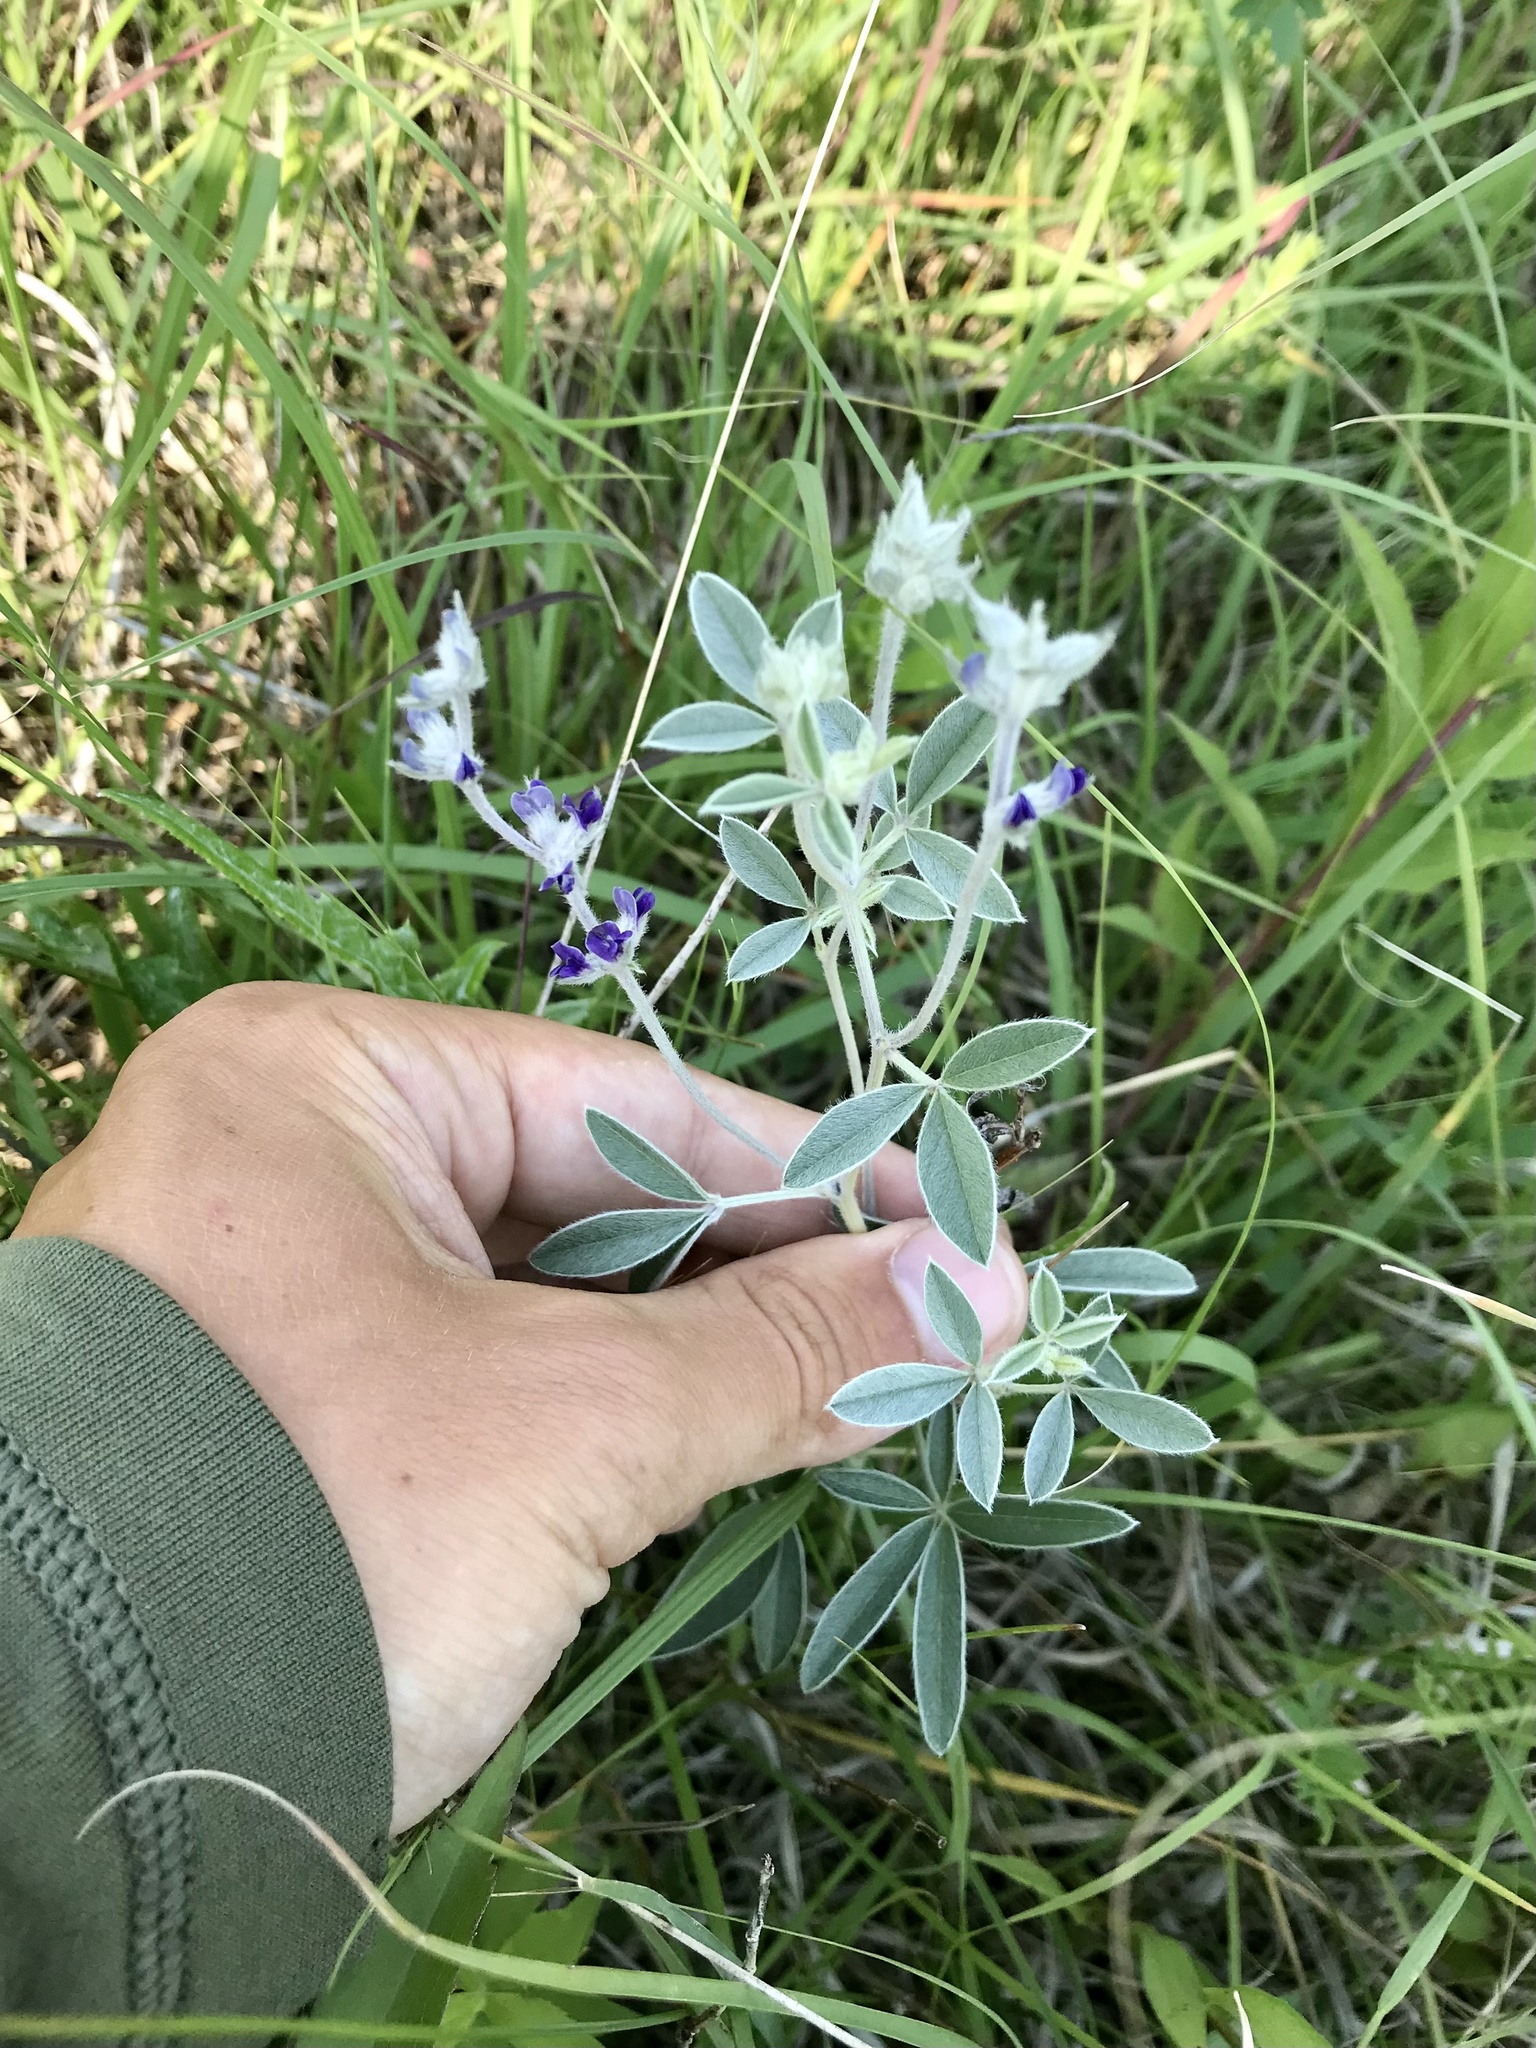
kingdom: Plantae
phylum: Tracheophyta
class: Magnoliopsida
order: Fabales
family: Fabaceae
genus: Pediomelum
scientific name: Pediomelum argophyllum
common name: Silver-leaved indian breadroot
